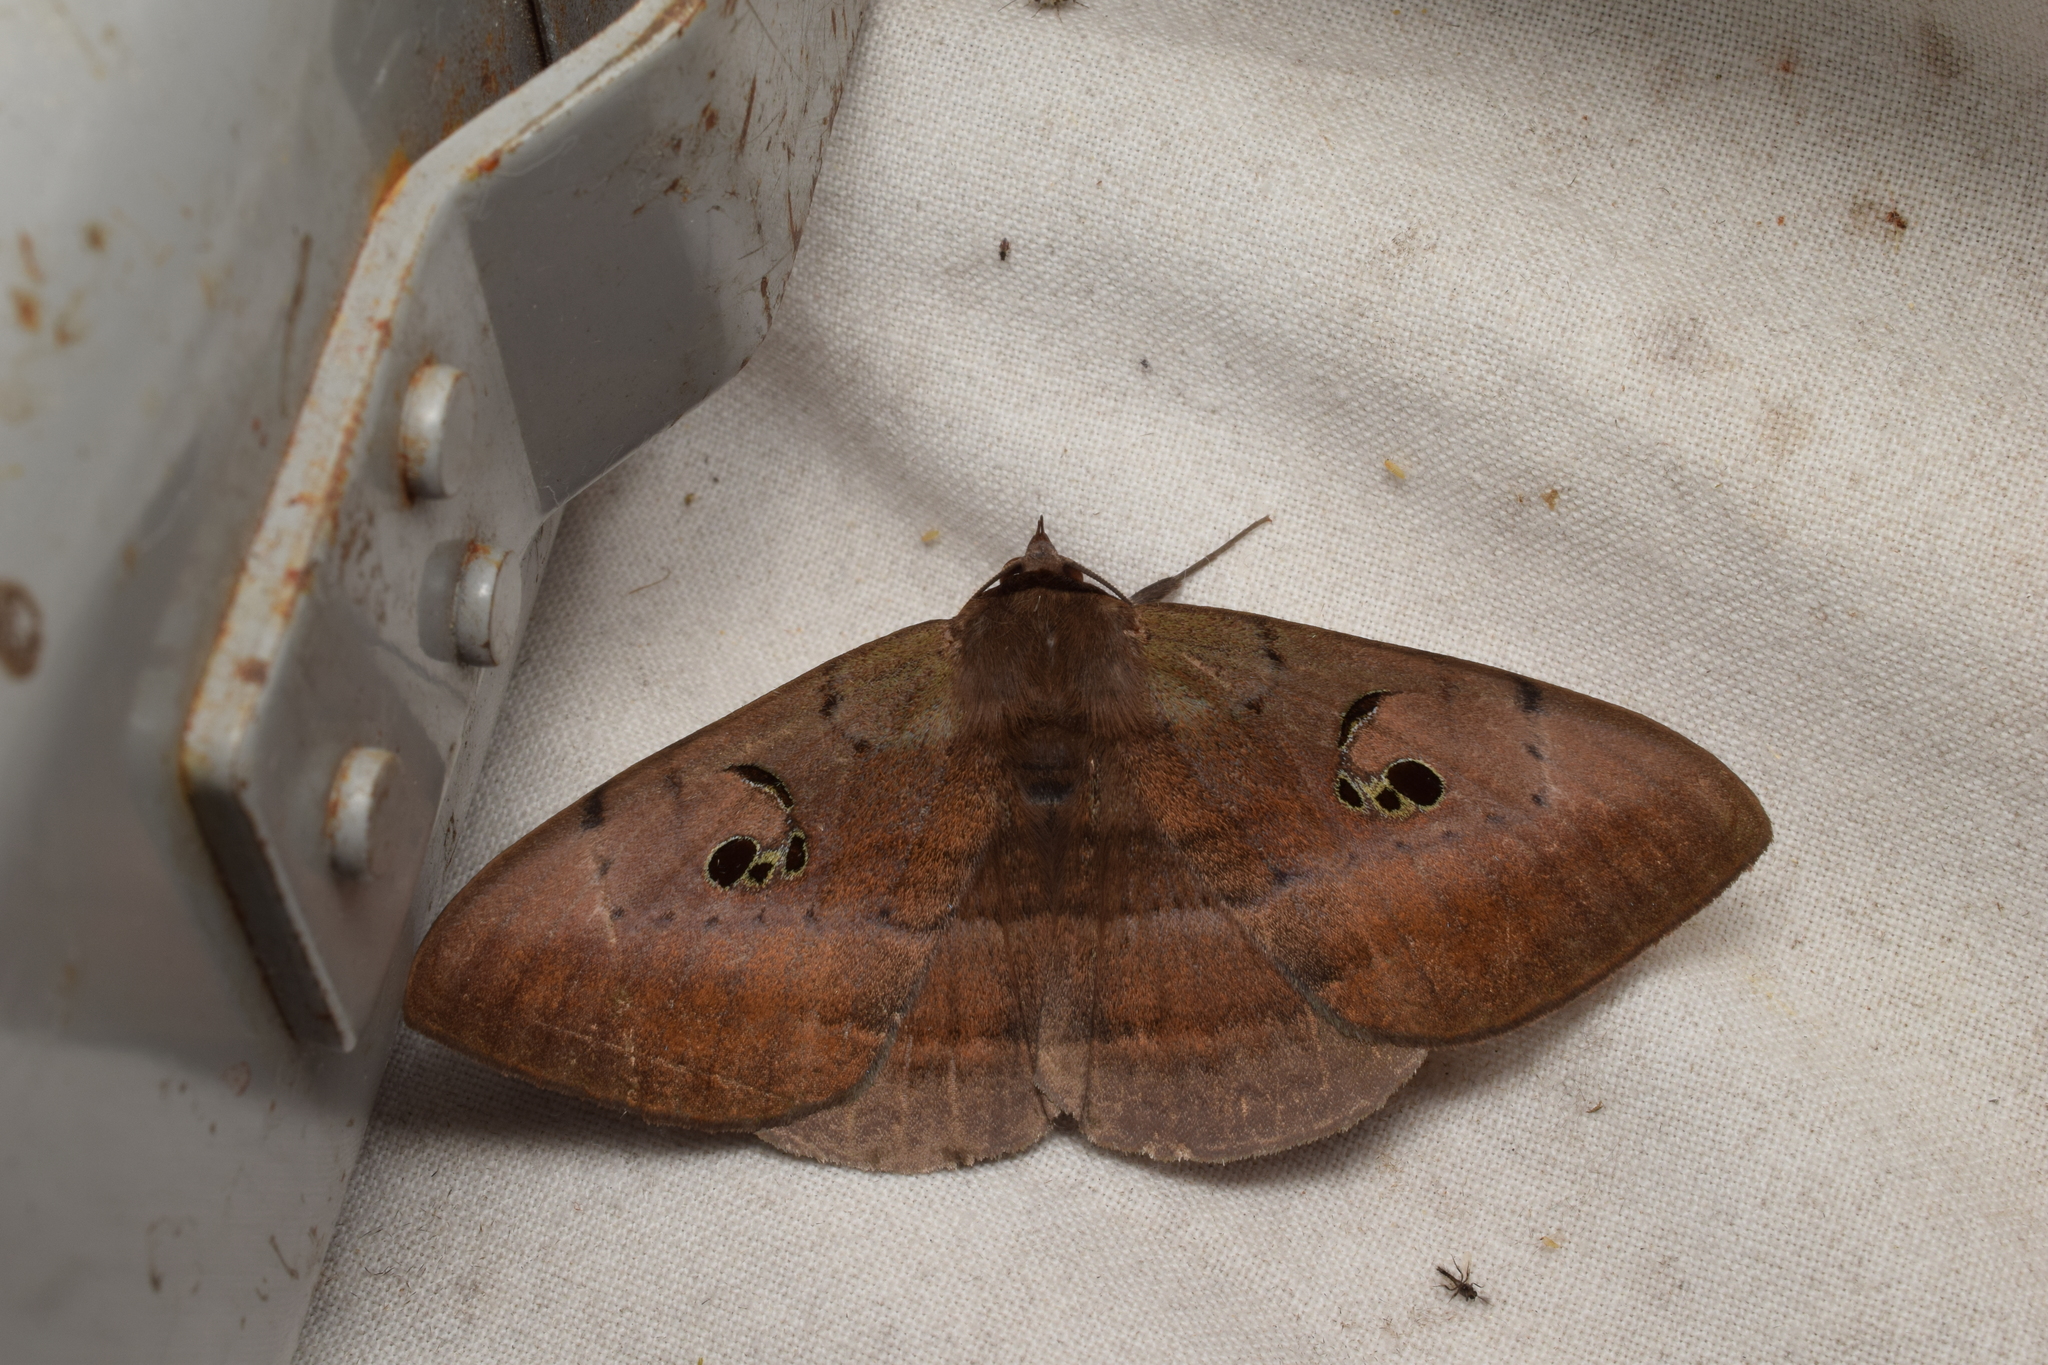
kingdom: Animalia
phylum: Arthropoda
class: Insecta
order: Lepidoptera
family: Erebidae
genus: Spirama
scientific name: Spirama retorta
